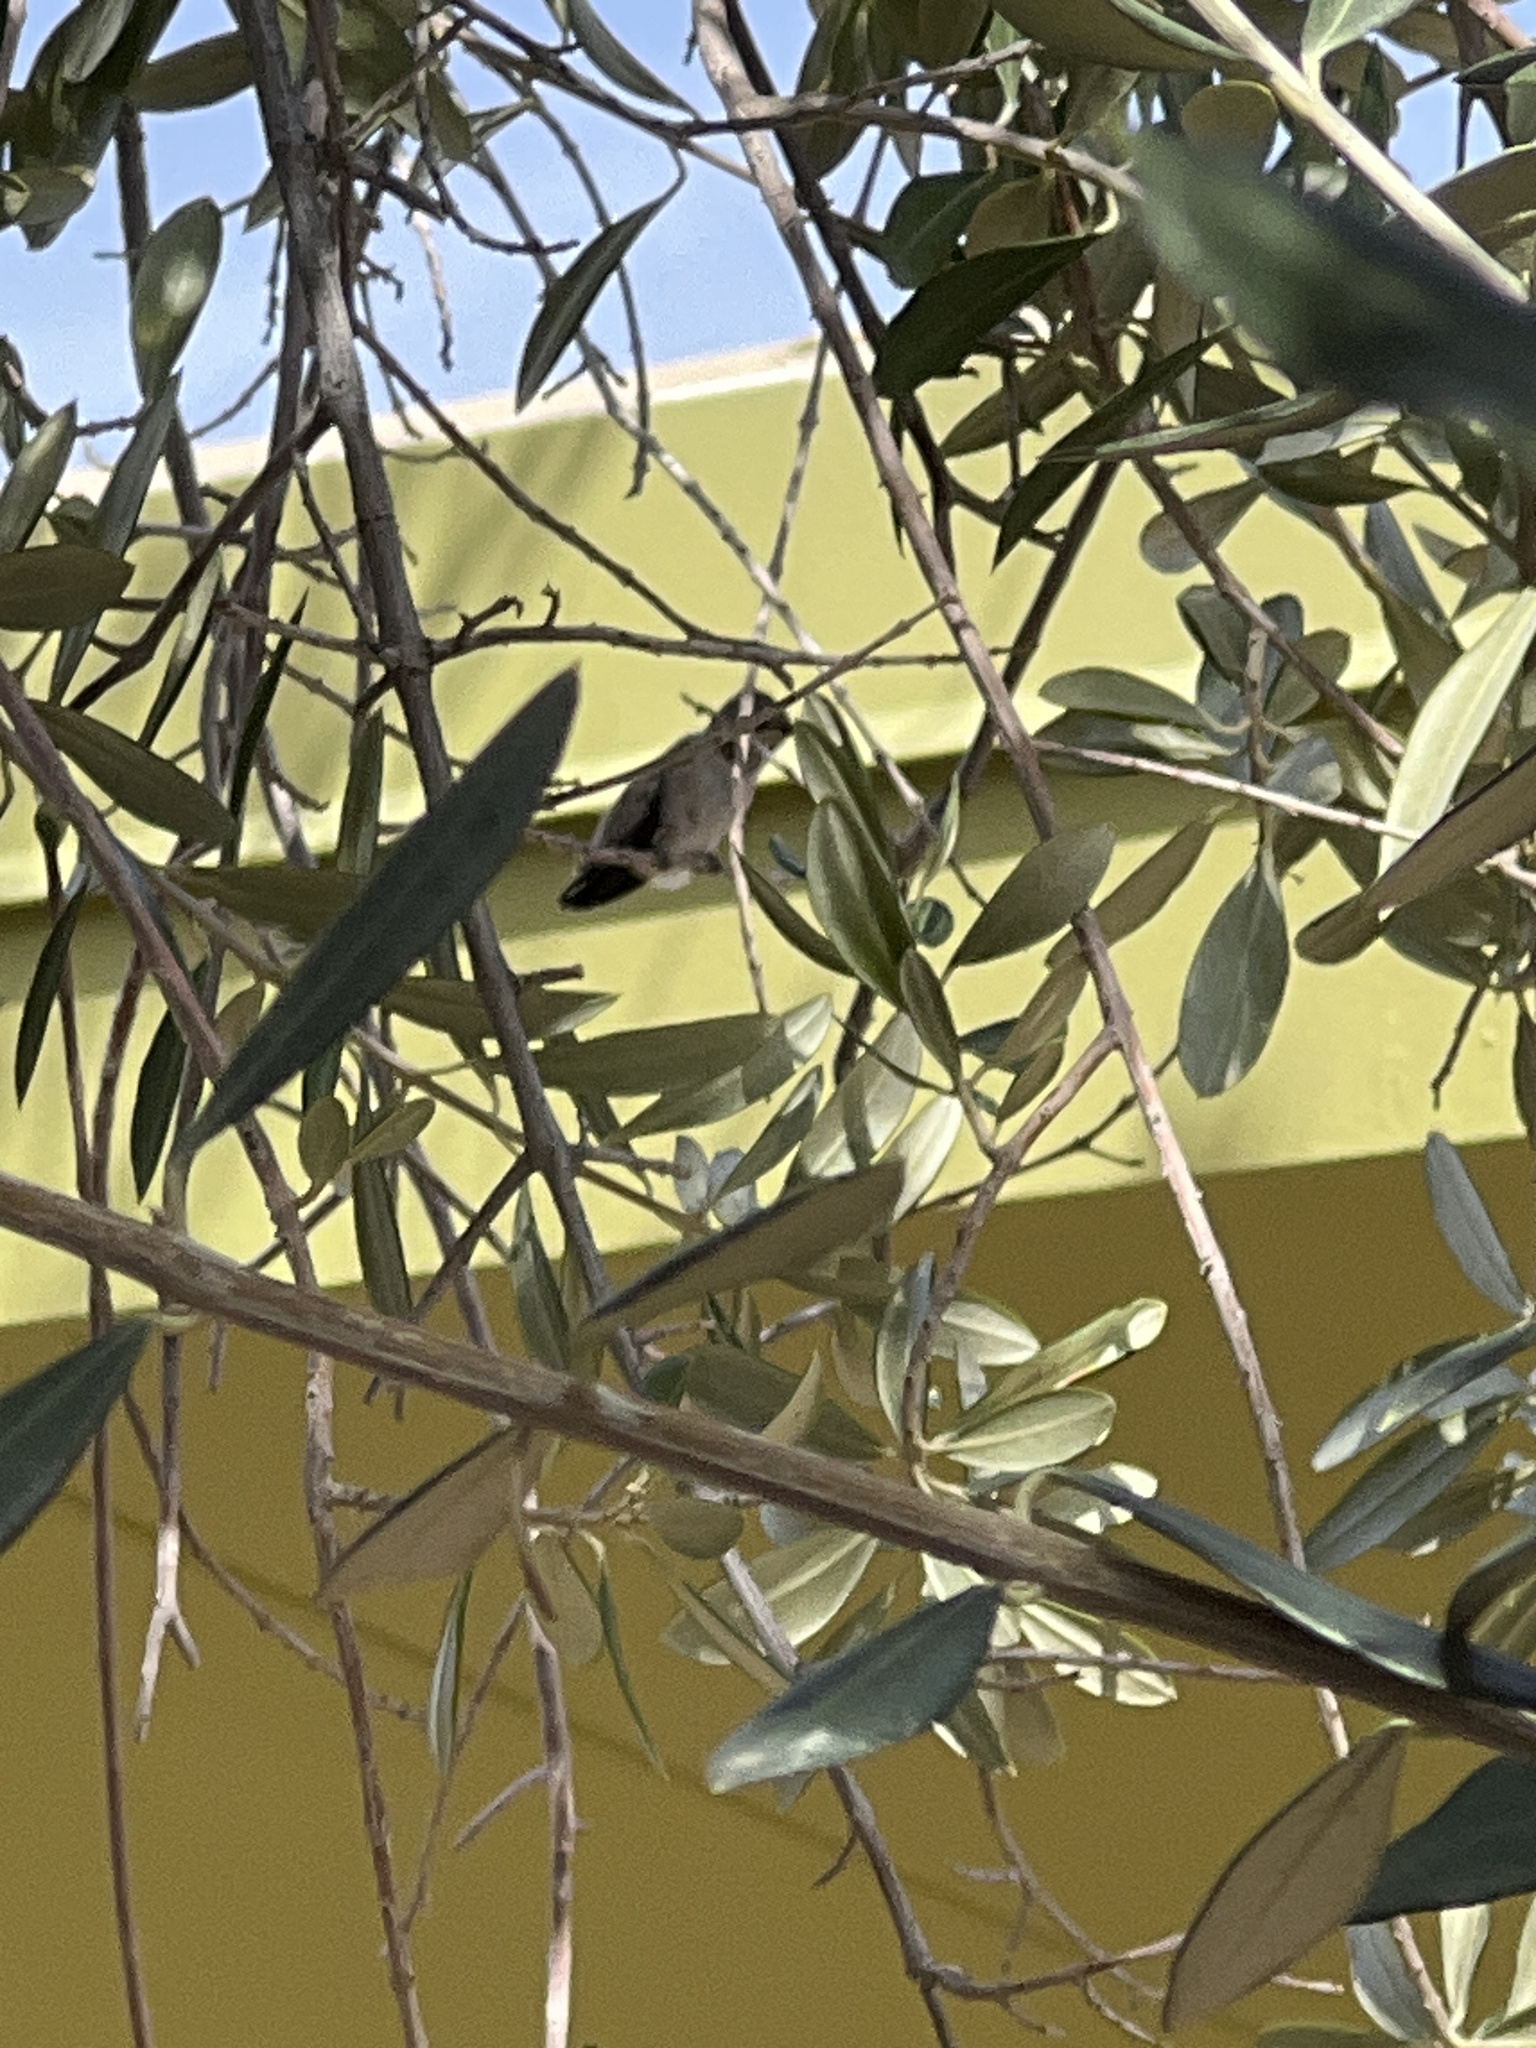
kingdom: Animalia
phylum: Chordata
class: Aves
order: Apodiformes
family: Trochilidae
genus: Calypte
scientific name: Calypte costae
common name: Costa's hummingbird
